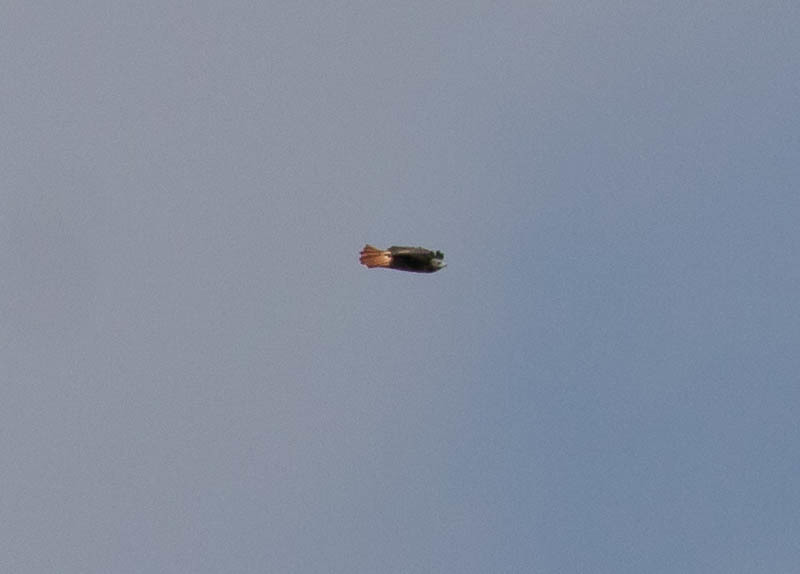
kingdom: Animalia
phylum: Chordata
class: Aves
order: Accipitriformes
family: Accipitridae
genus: Buteo
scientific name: Buteo jamaicensis
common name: Red-tailed hawk
